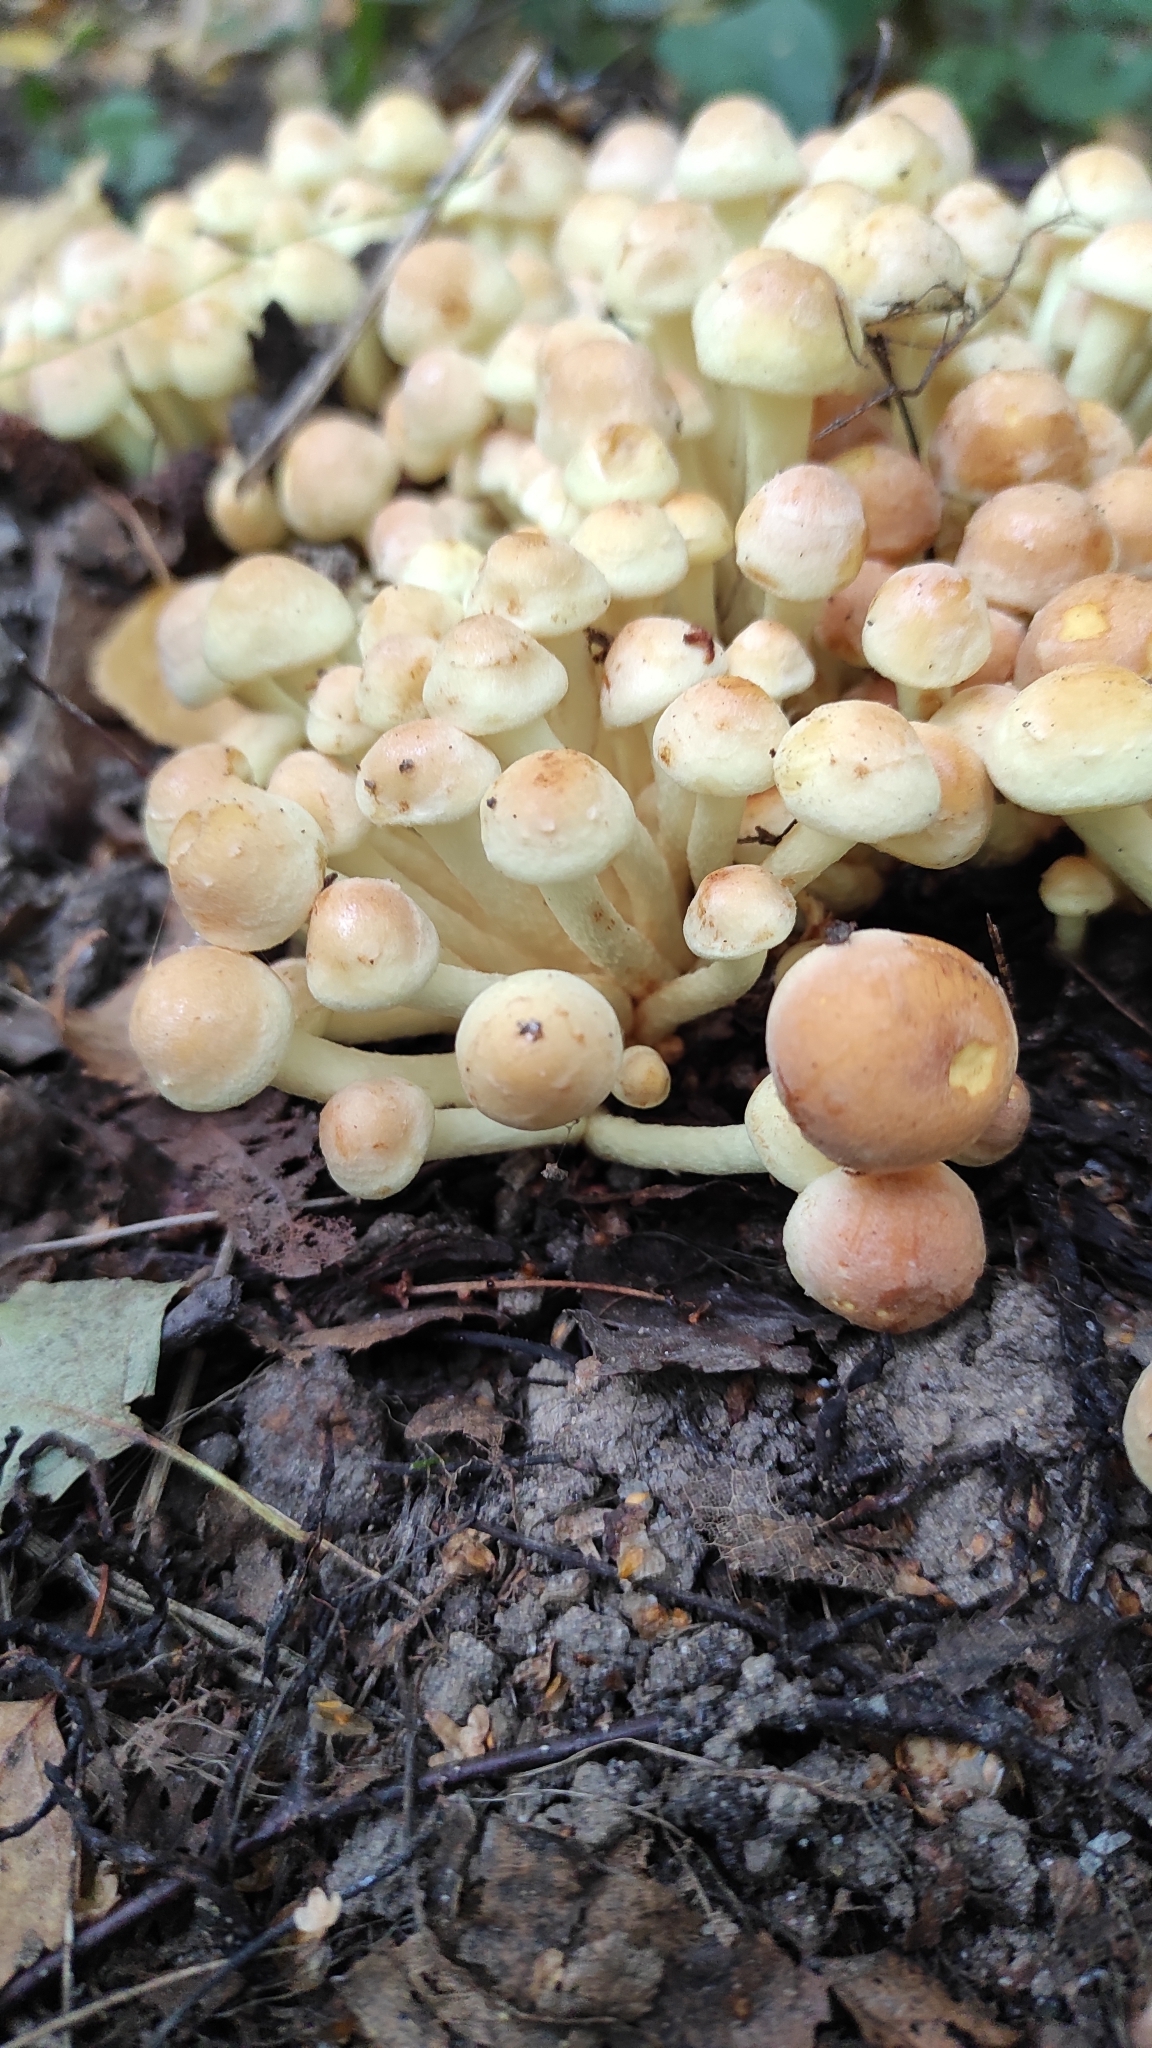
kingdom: Fungi
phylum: Basidiomycota
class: Agaricomycetes
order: Agaricales
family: Strophariaceae
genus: Hypholoma
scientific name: Hypholoma fasciculare
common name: Sulphur tuft
